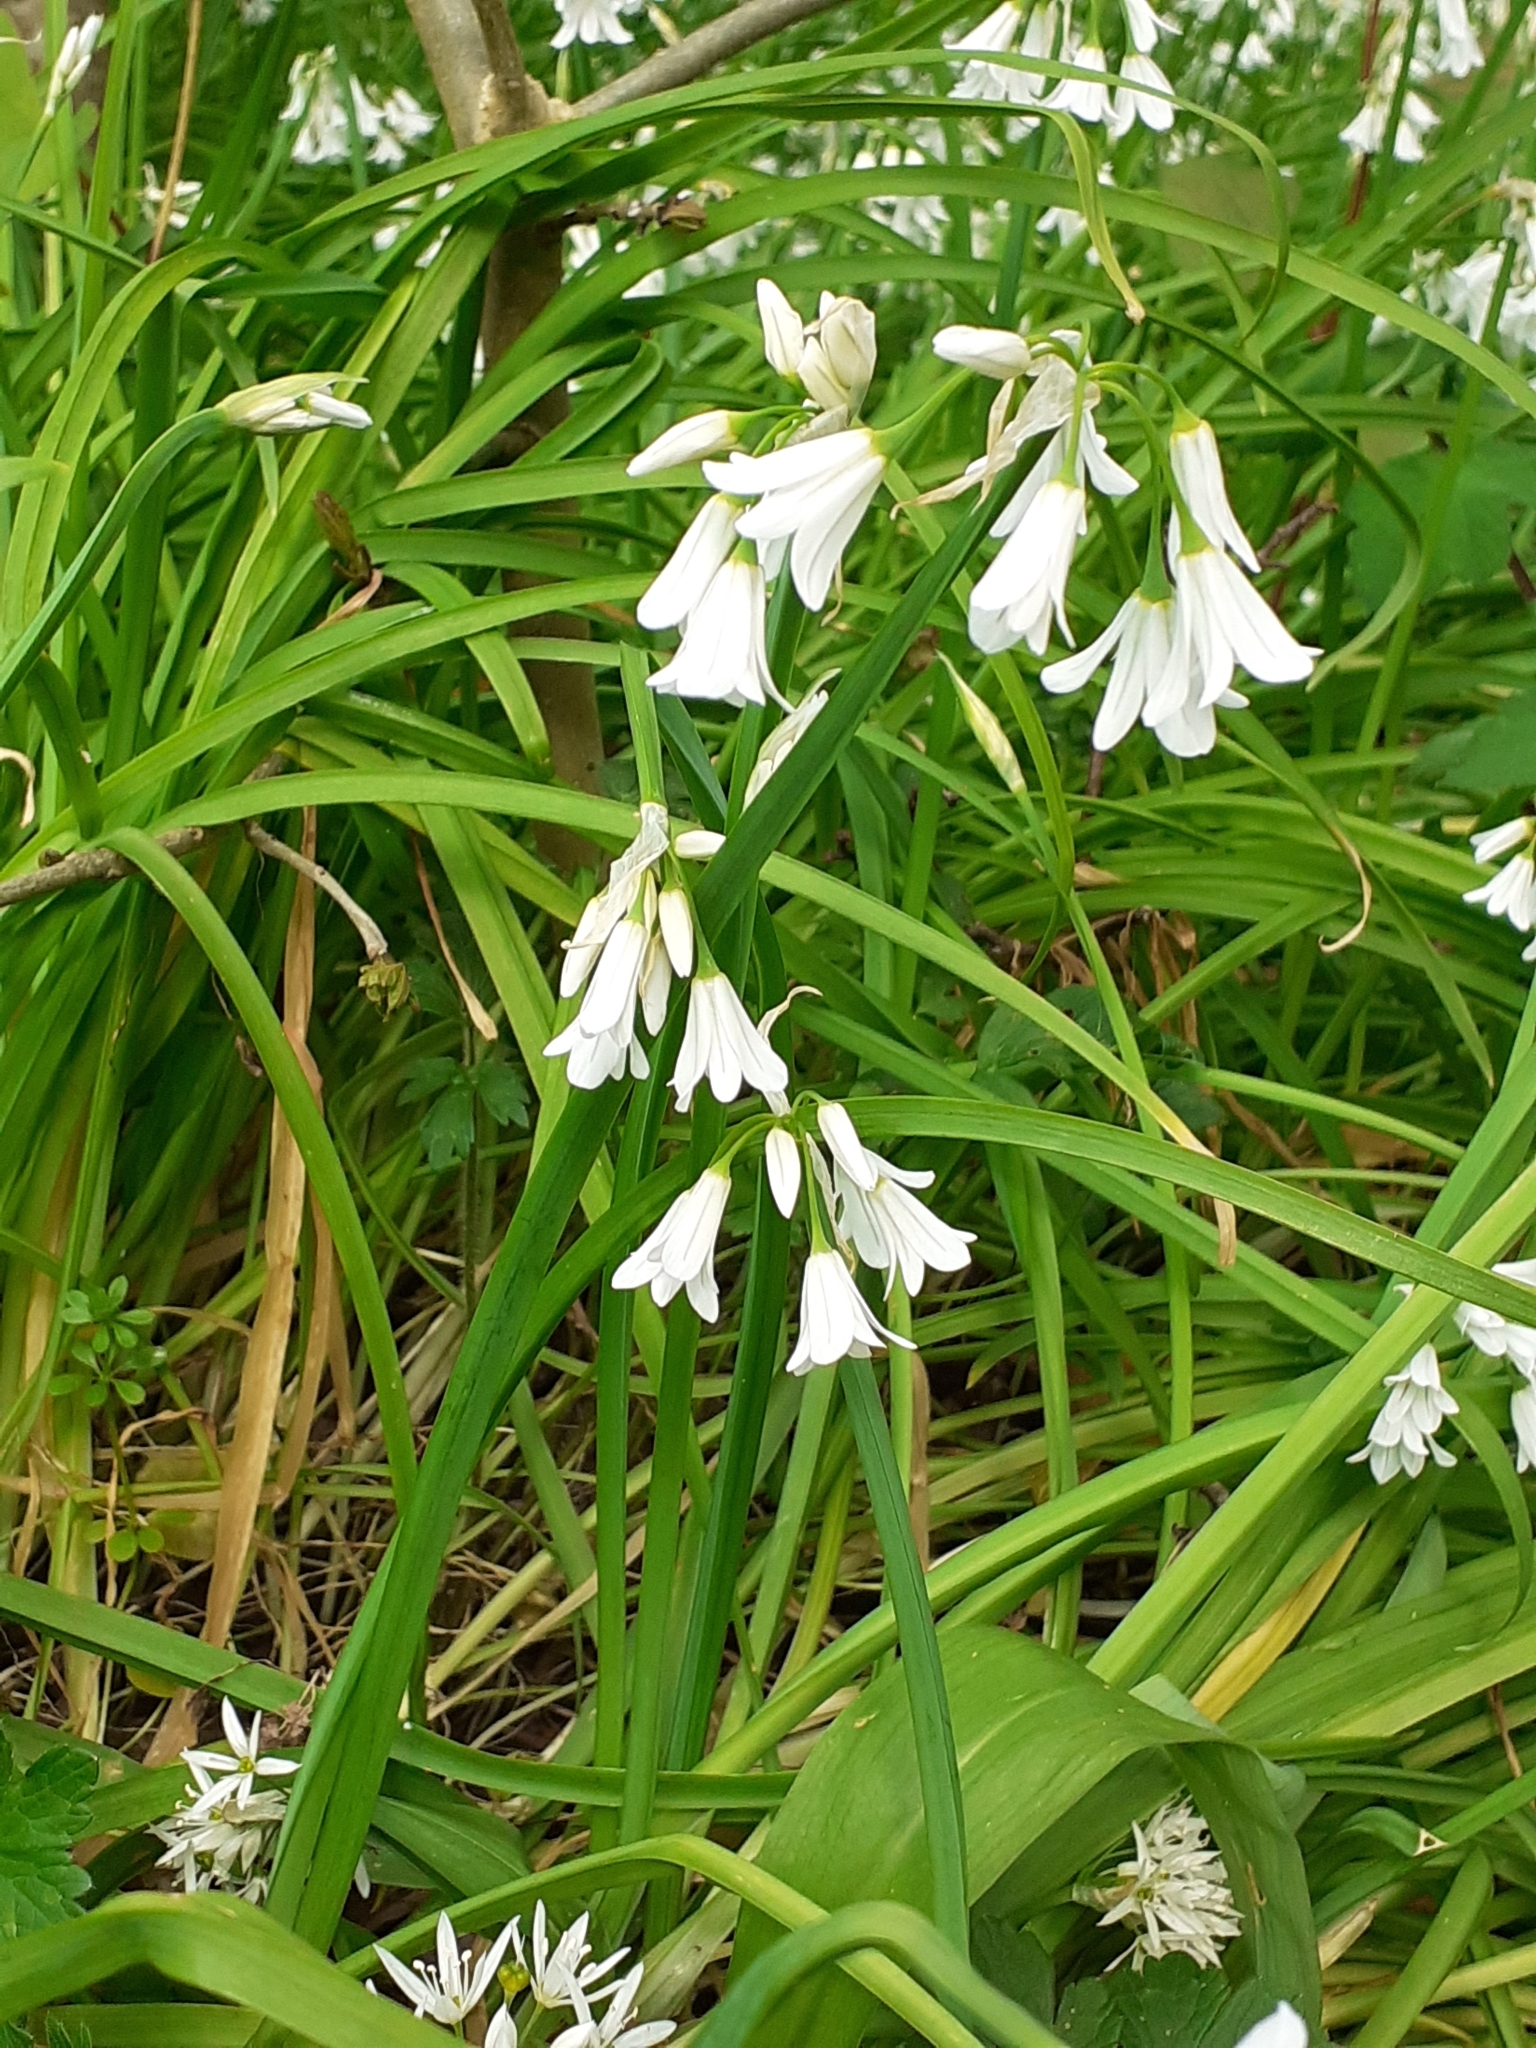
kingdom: Plantae
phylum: Tracheophyta
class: Liliopsida
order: Asparagales
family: Amaryllidaceae
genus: Allium
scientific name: Allium triquetrum
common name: Three-cornered garlic
